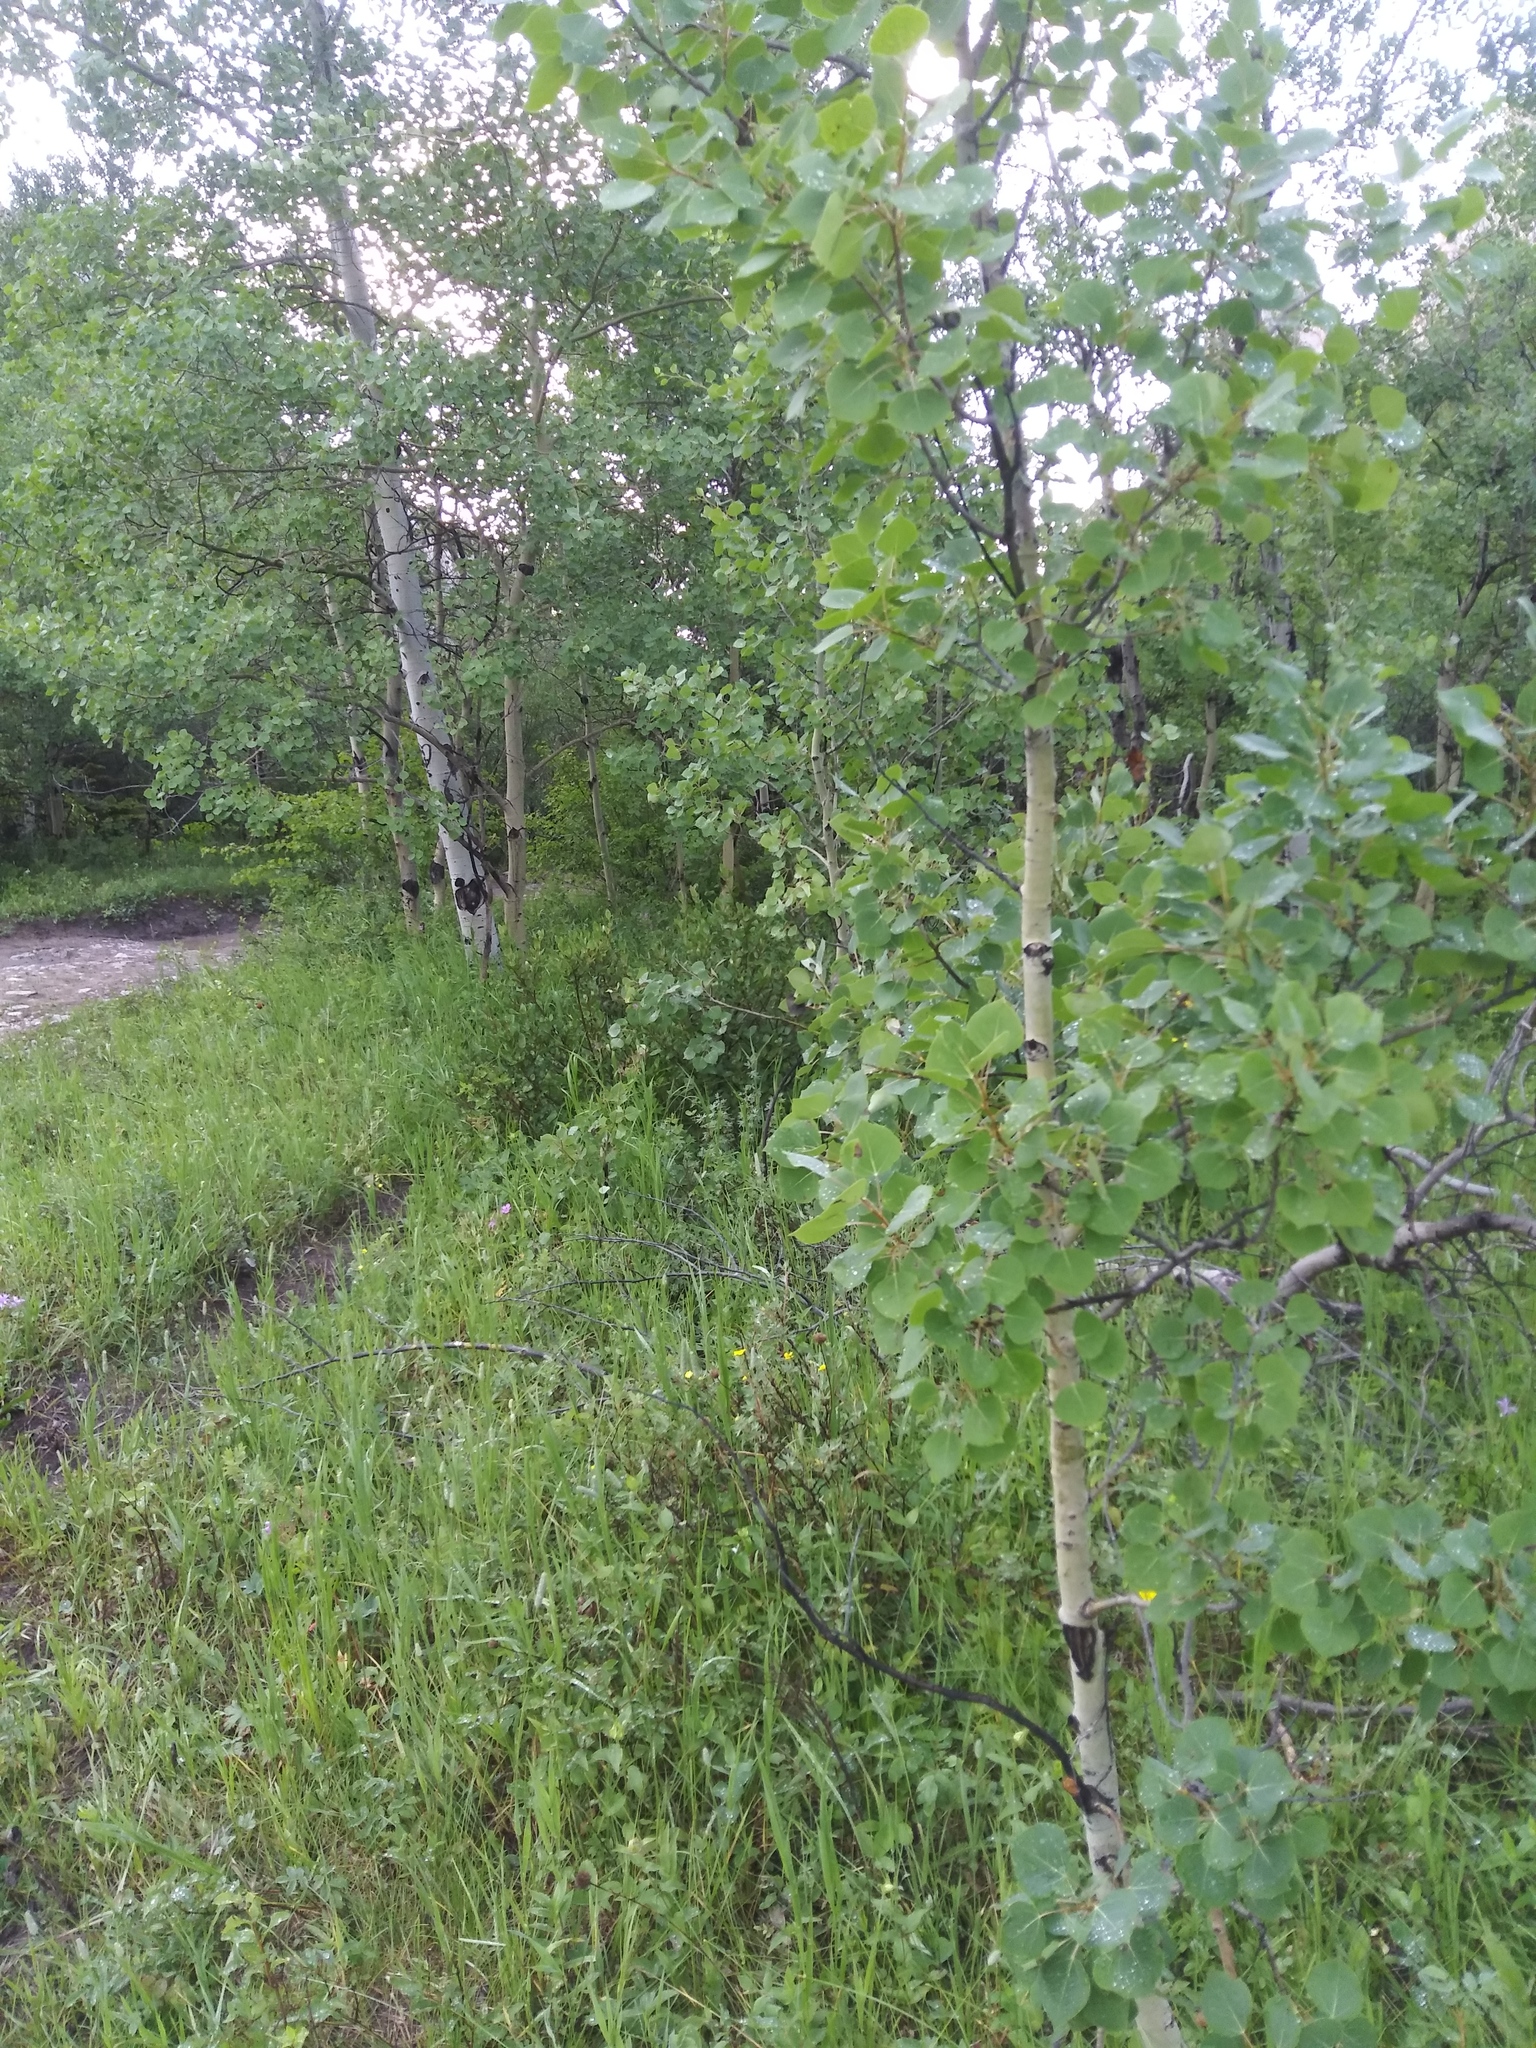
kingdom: Plantae
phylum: Tracheophyta
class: Magnoliopsida
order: Malpighiales
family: Salicaceae
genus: Populus
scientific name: Populus tremuloides
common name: Quaking aspen
